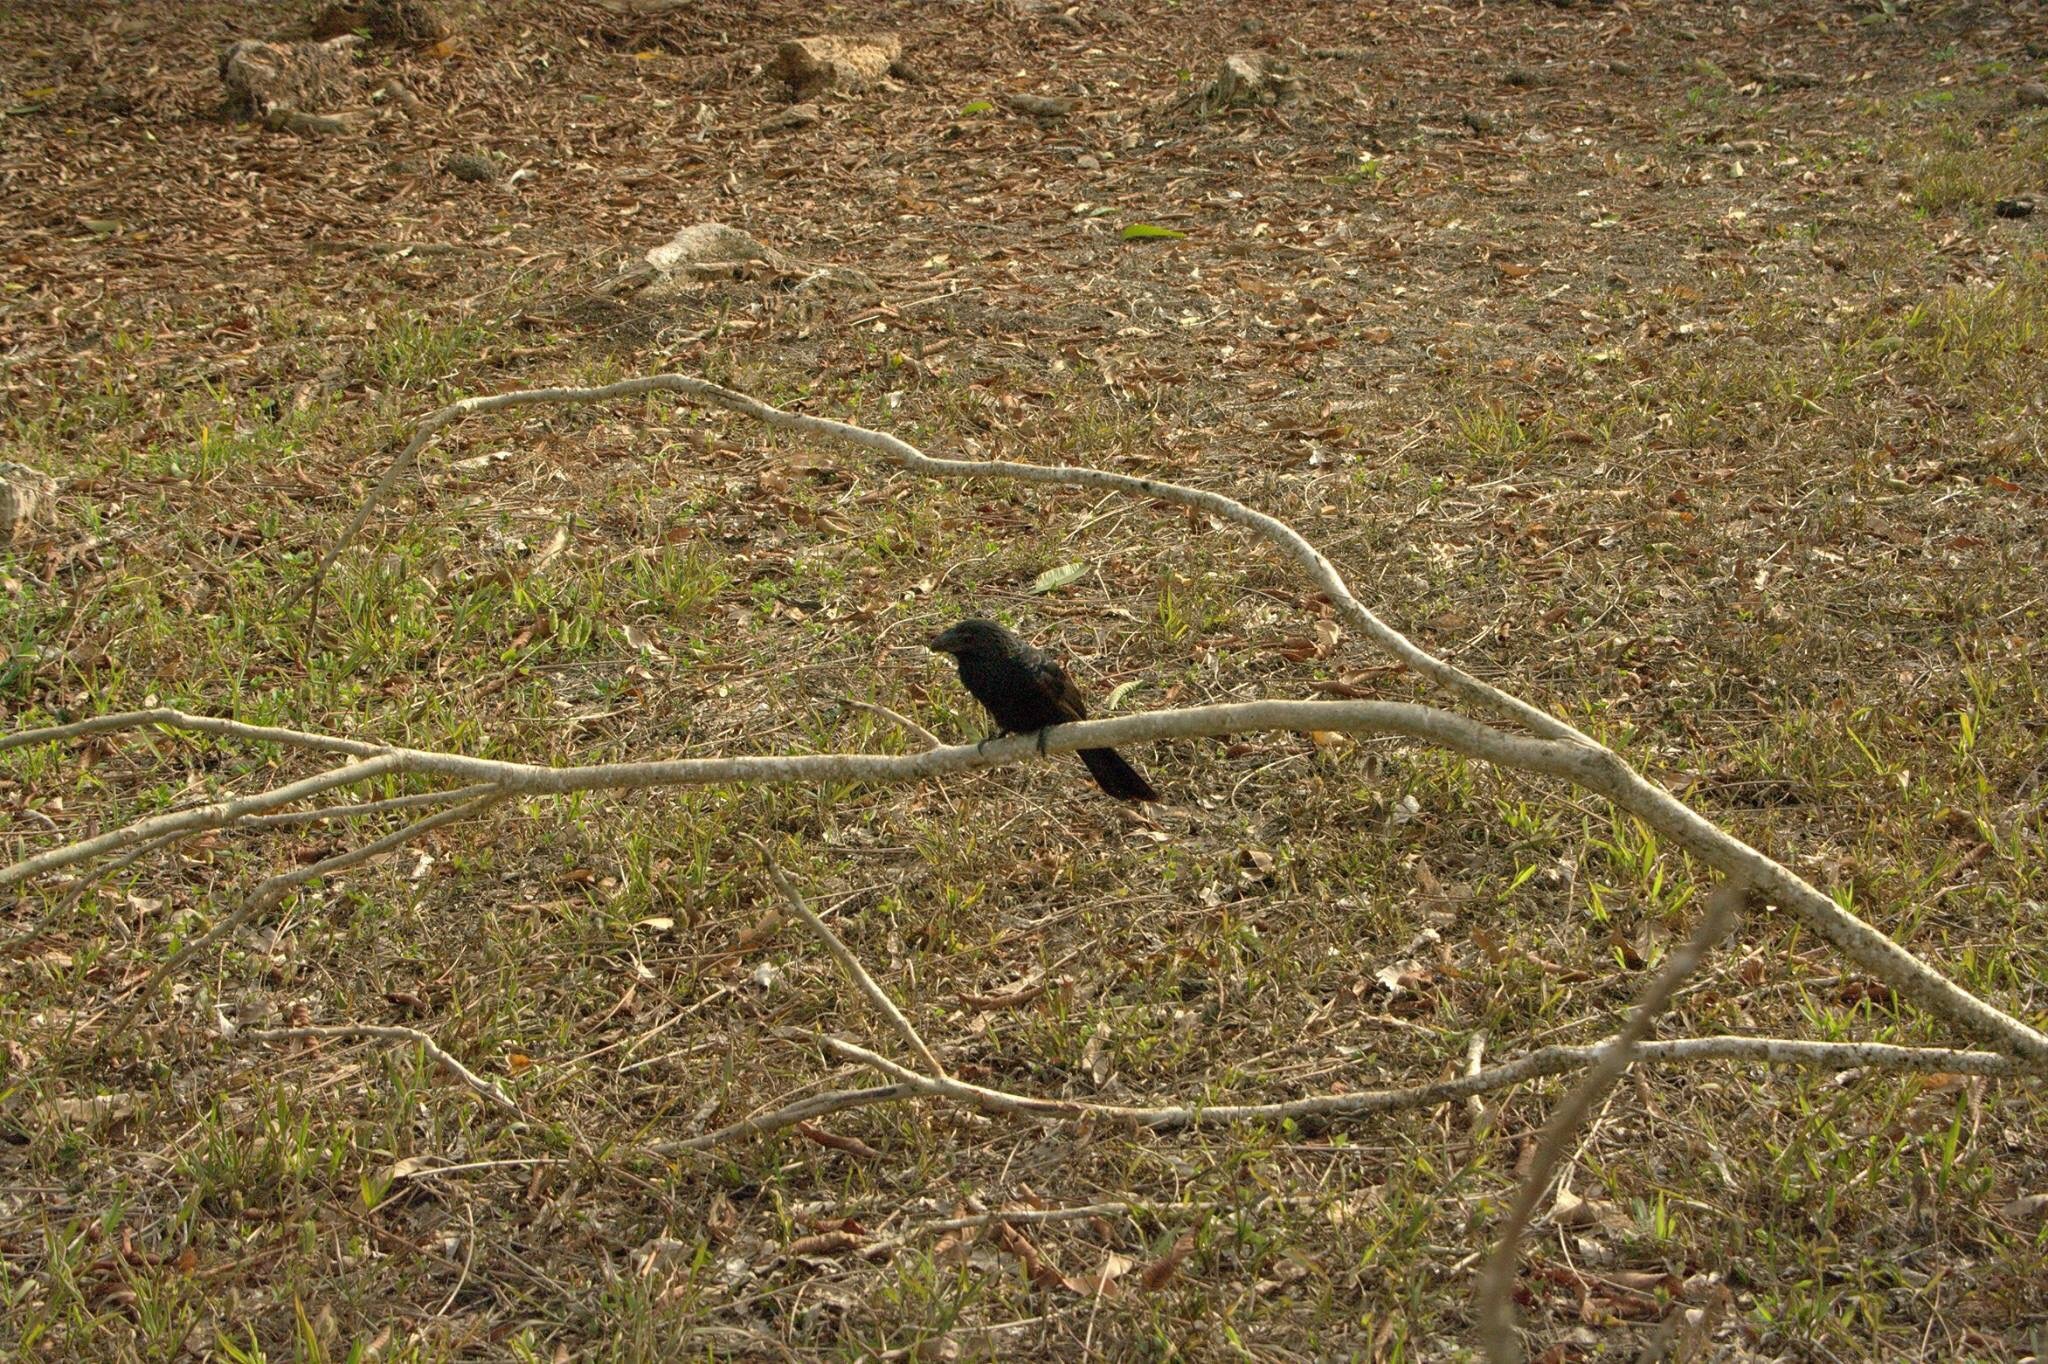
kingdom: Animalia
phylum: Chordata
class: Aves
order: Cuculiformes
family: Cuculidae
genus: Crotophaga
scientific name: Crotophaga ani
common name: Smooth-billed ani
